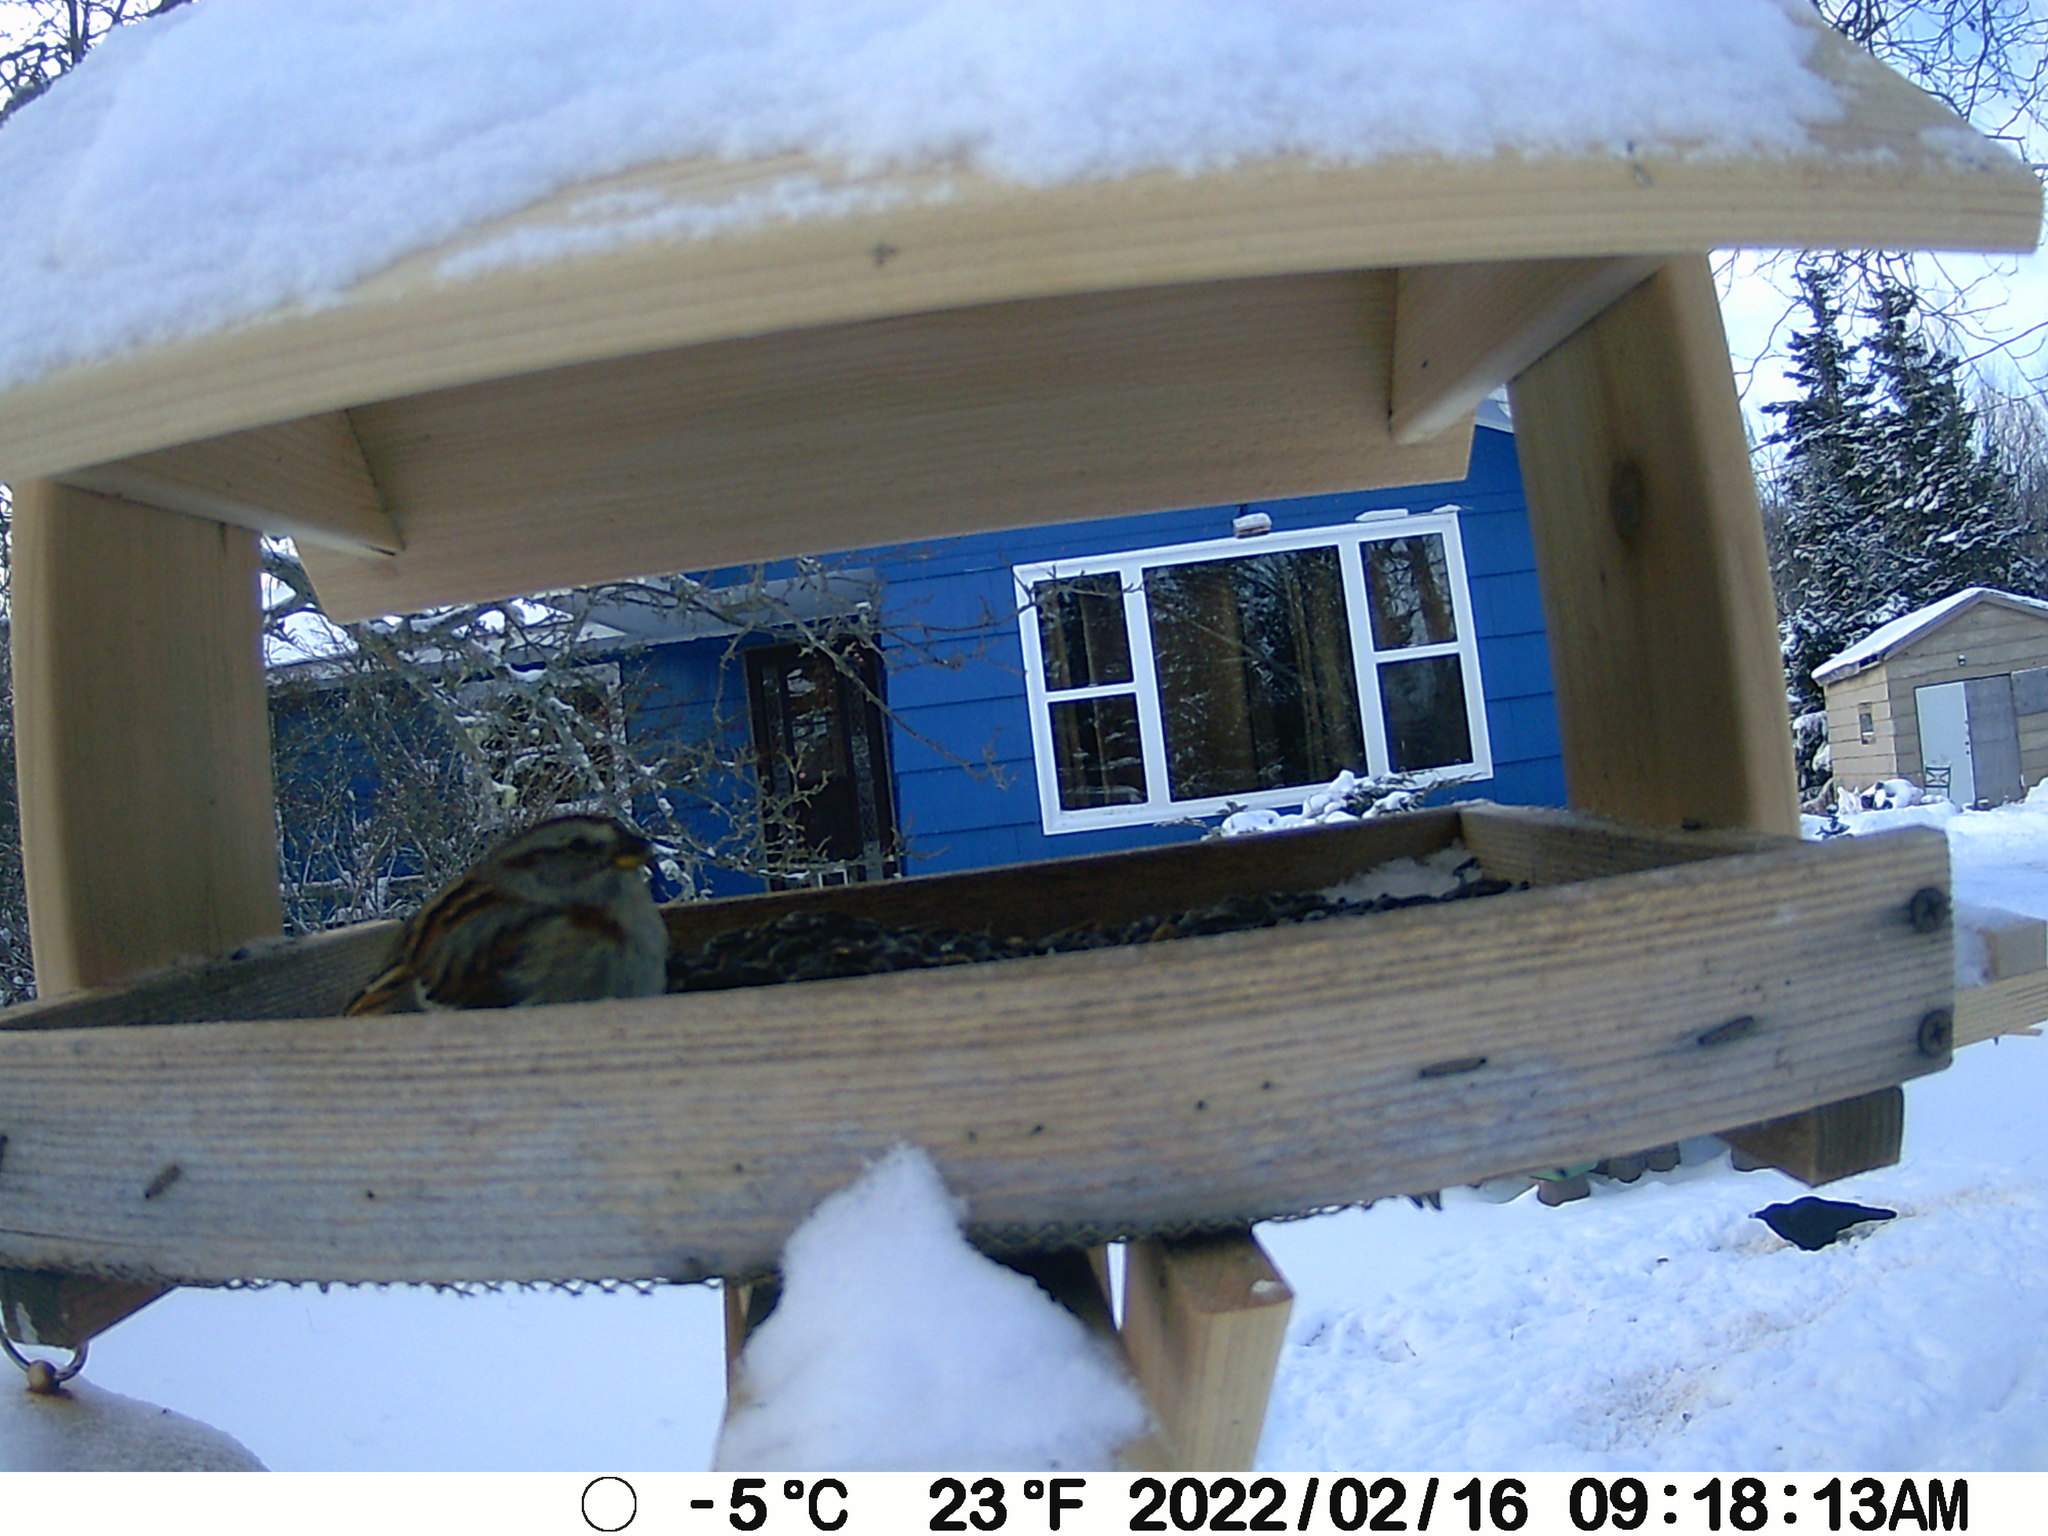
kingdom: Animalia
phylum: Chordata
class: Aves
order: Passeriformes
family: Passerellidae
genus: Spizelloides
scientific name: Spizelloides arborea
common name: American tree sparrow
